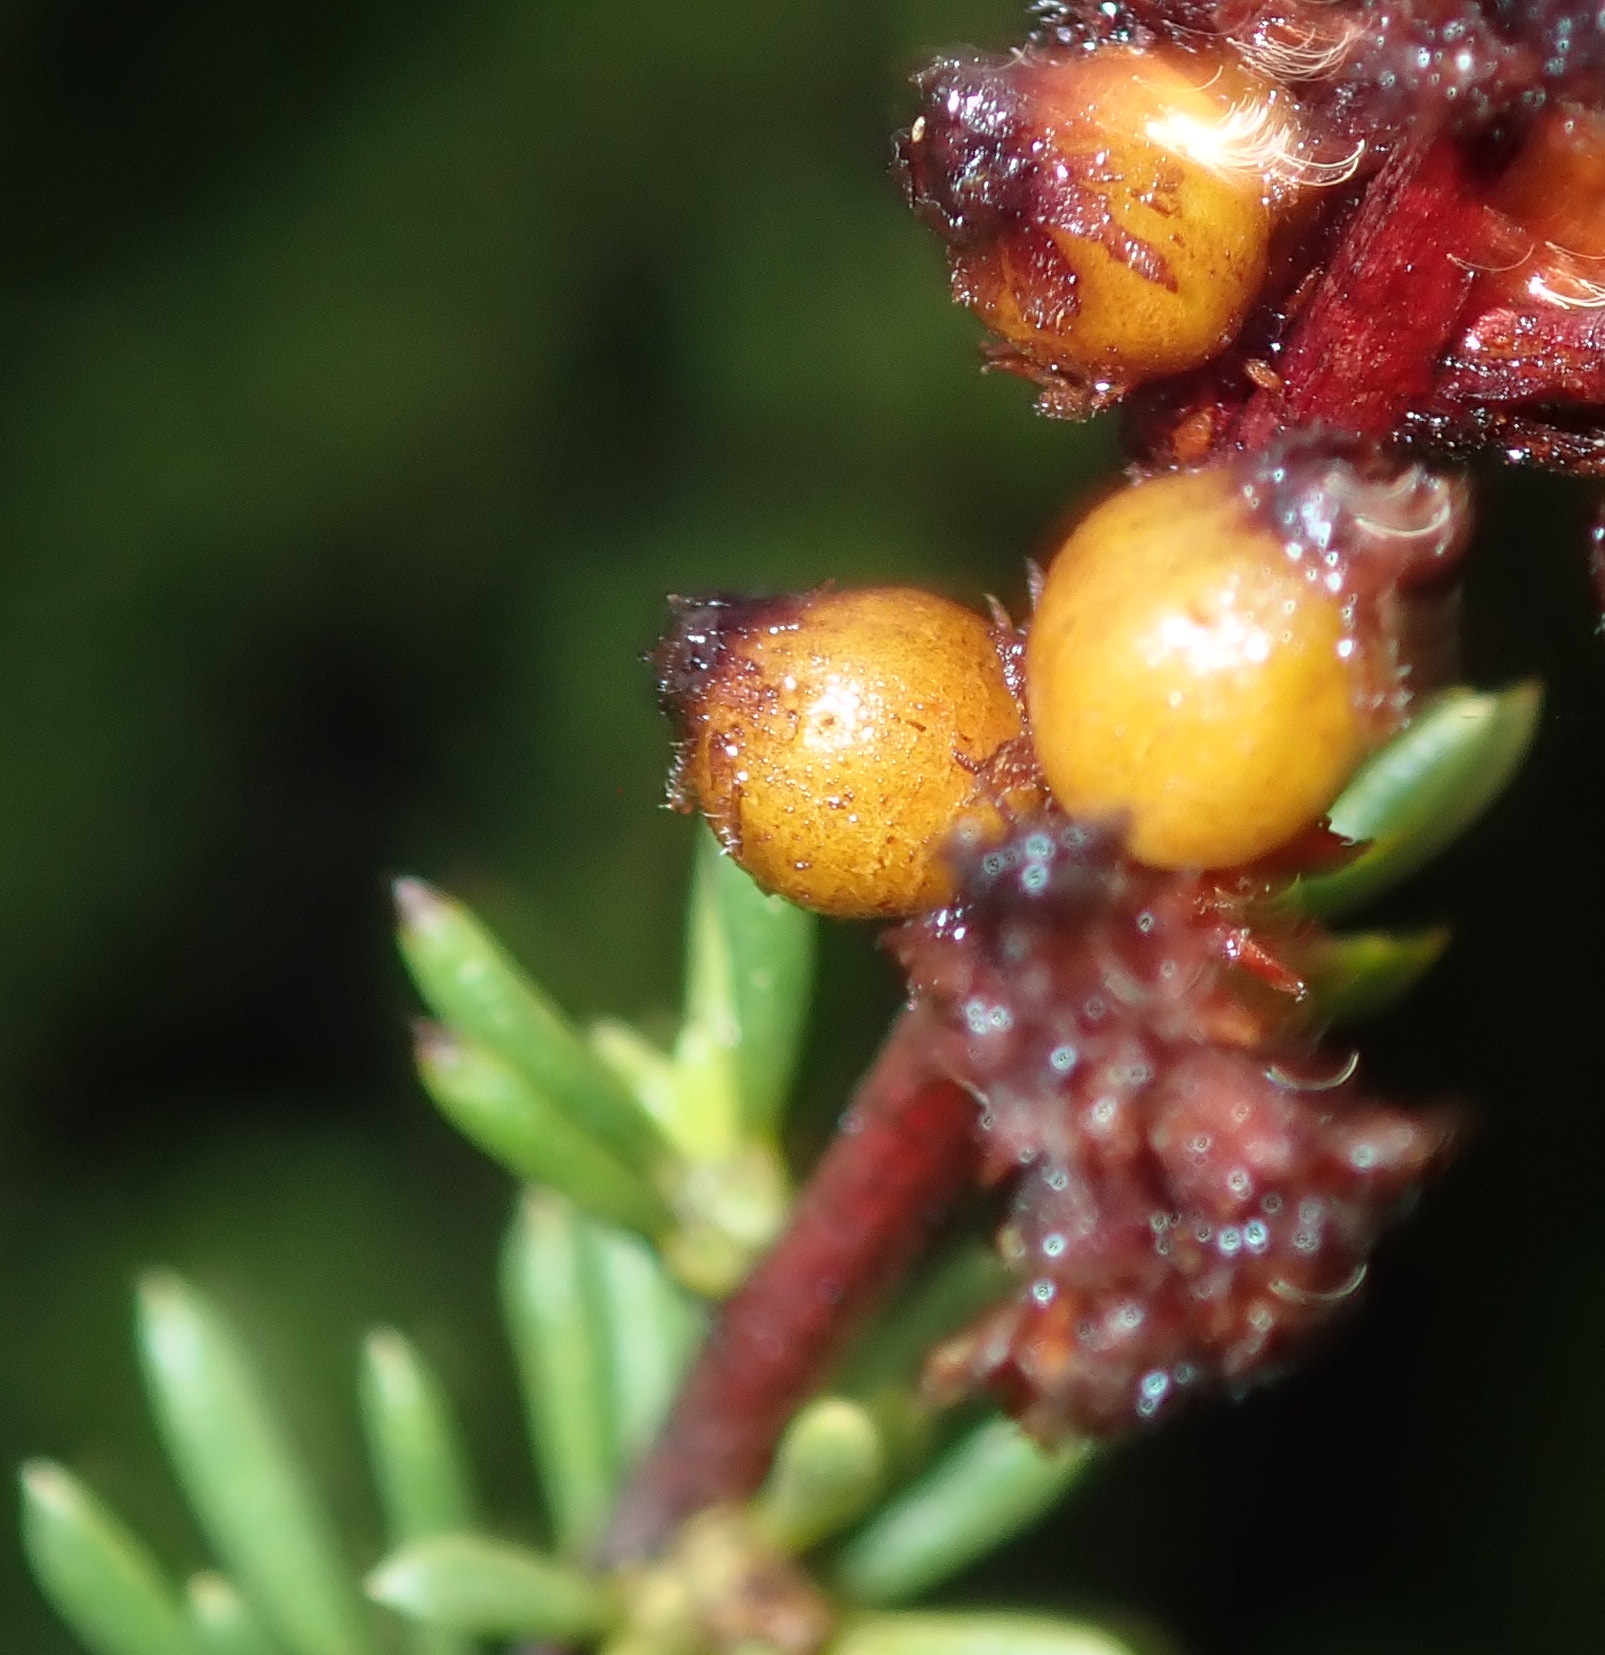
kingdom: Animalia
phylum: Arthropoda
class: Insecta
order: Diptera
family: Cecidomyiidae
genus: Asphondylia
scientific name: Asphondylia adenostoma
